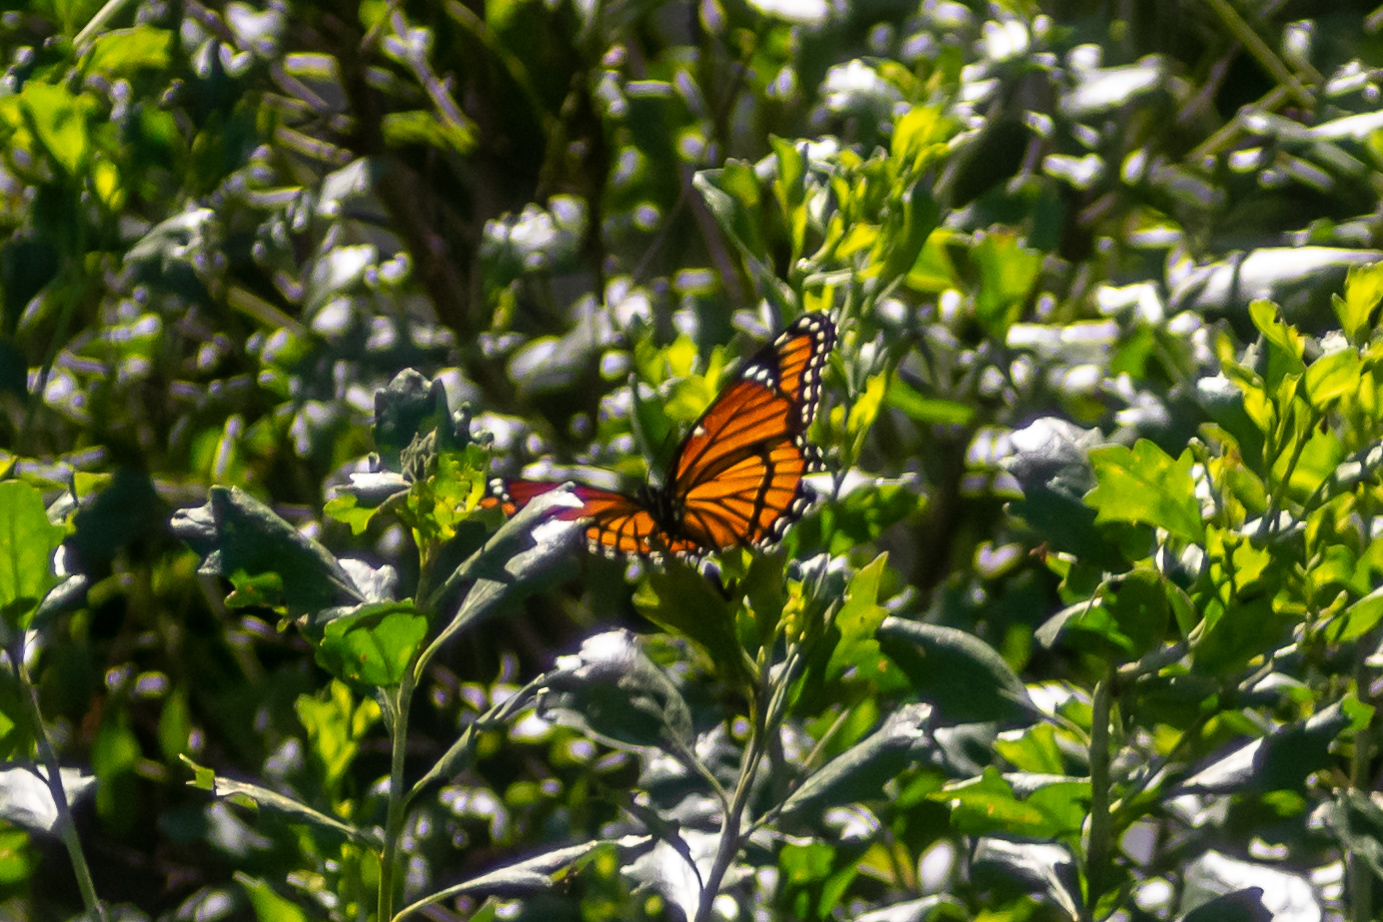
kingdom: Animalia
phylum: Arthropoda
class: Insecta
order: Lepidoptera
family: Nymphalidae
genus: Limenitis
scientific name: Limenitis archippus
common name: Viceroy
